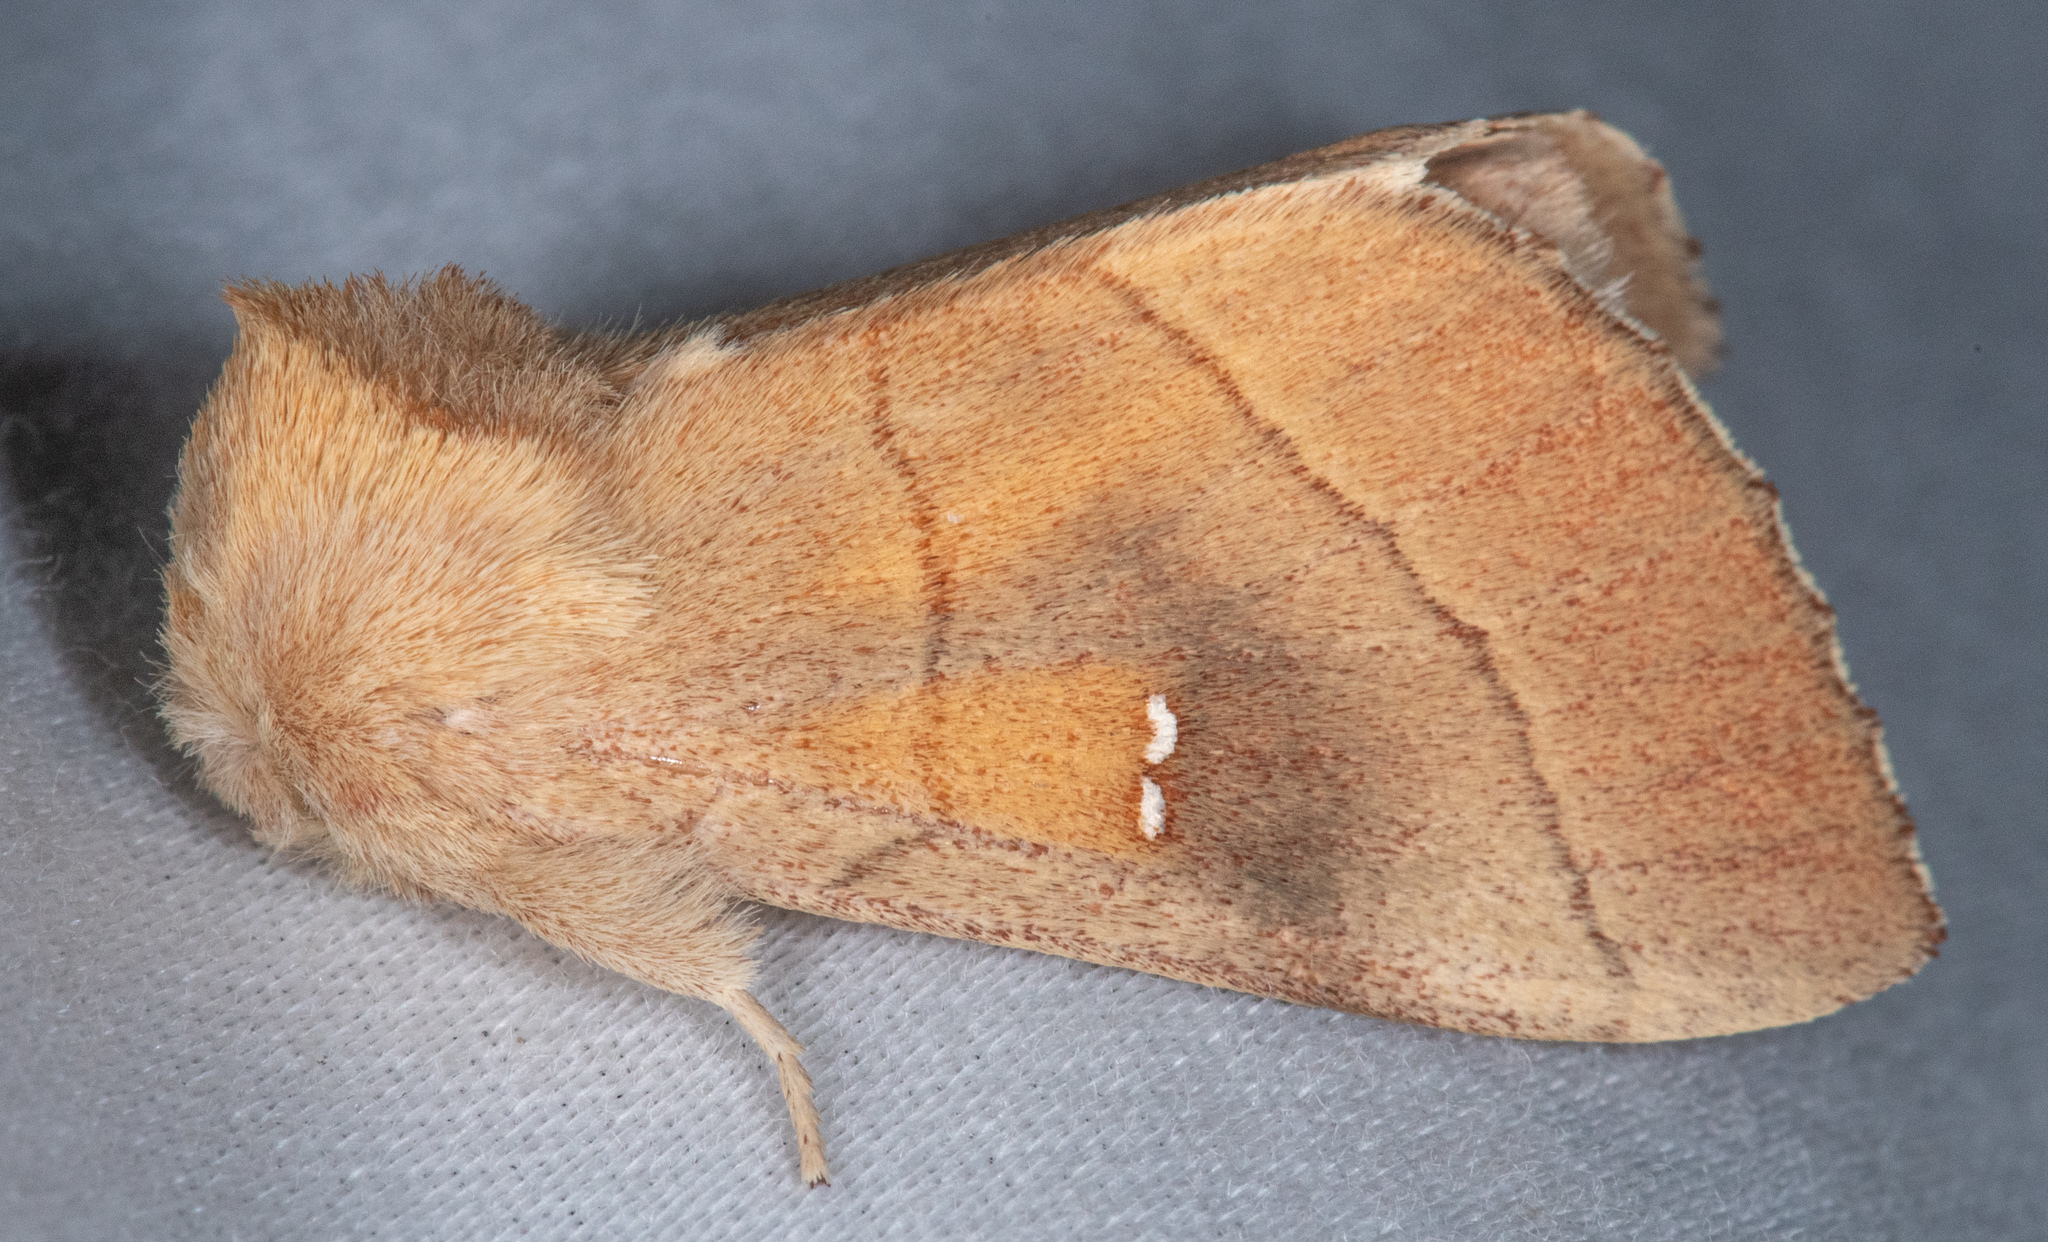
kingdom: Animalia
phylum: Arthropoda
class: Insecta
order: Lepidoptera
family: Notodontidae
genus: Nadata
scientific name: Nadata gibbosa
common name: White-dotted prominent
